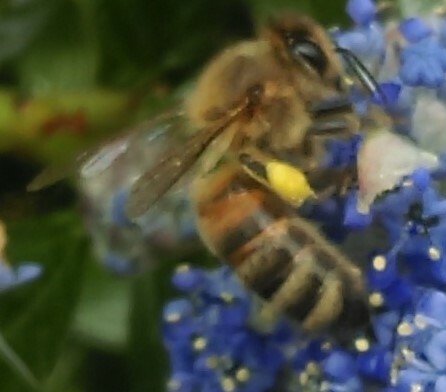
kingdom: Animalia
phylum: Arthropoda
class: Insecta
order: Hymenoptera
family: Apidae
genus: Apis
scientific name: Apis mellifera
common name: Honey bee
